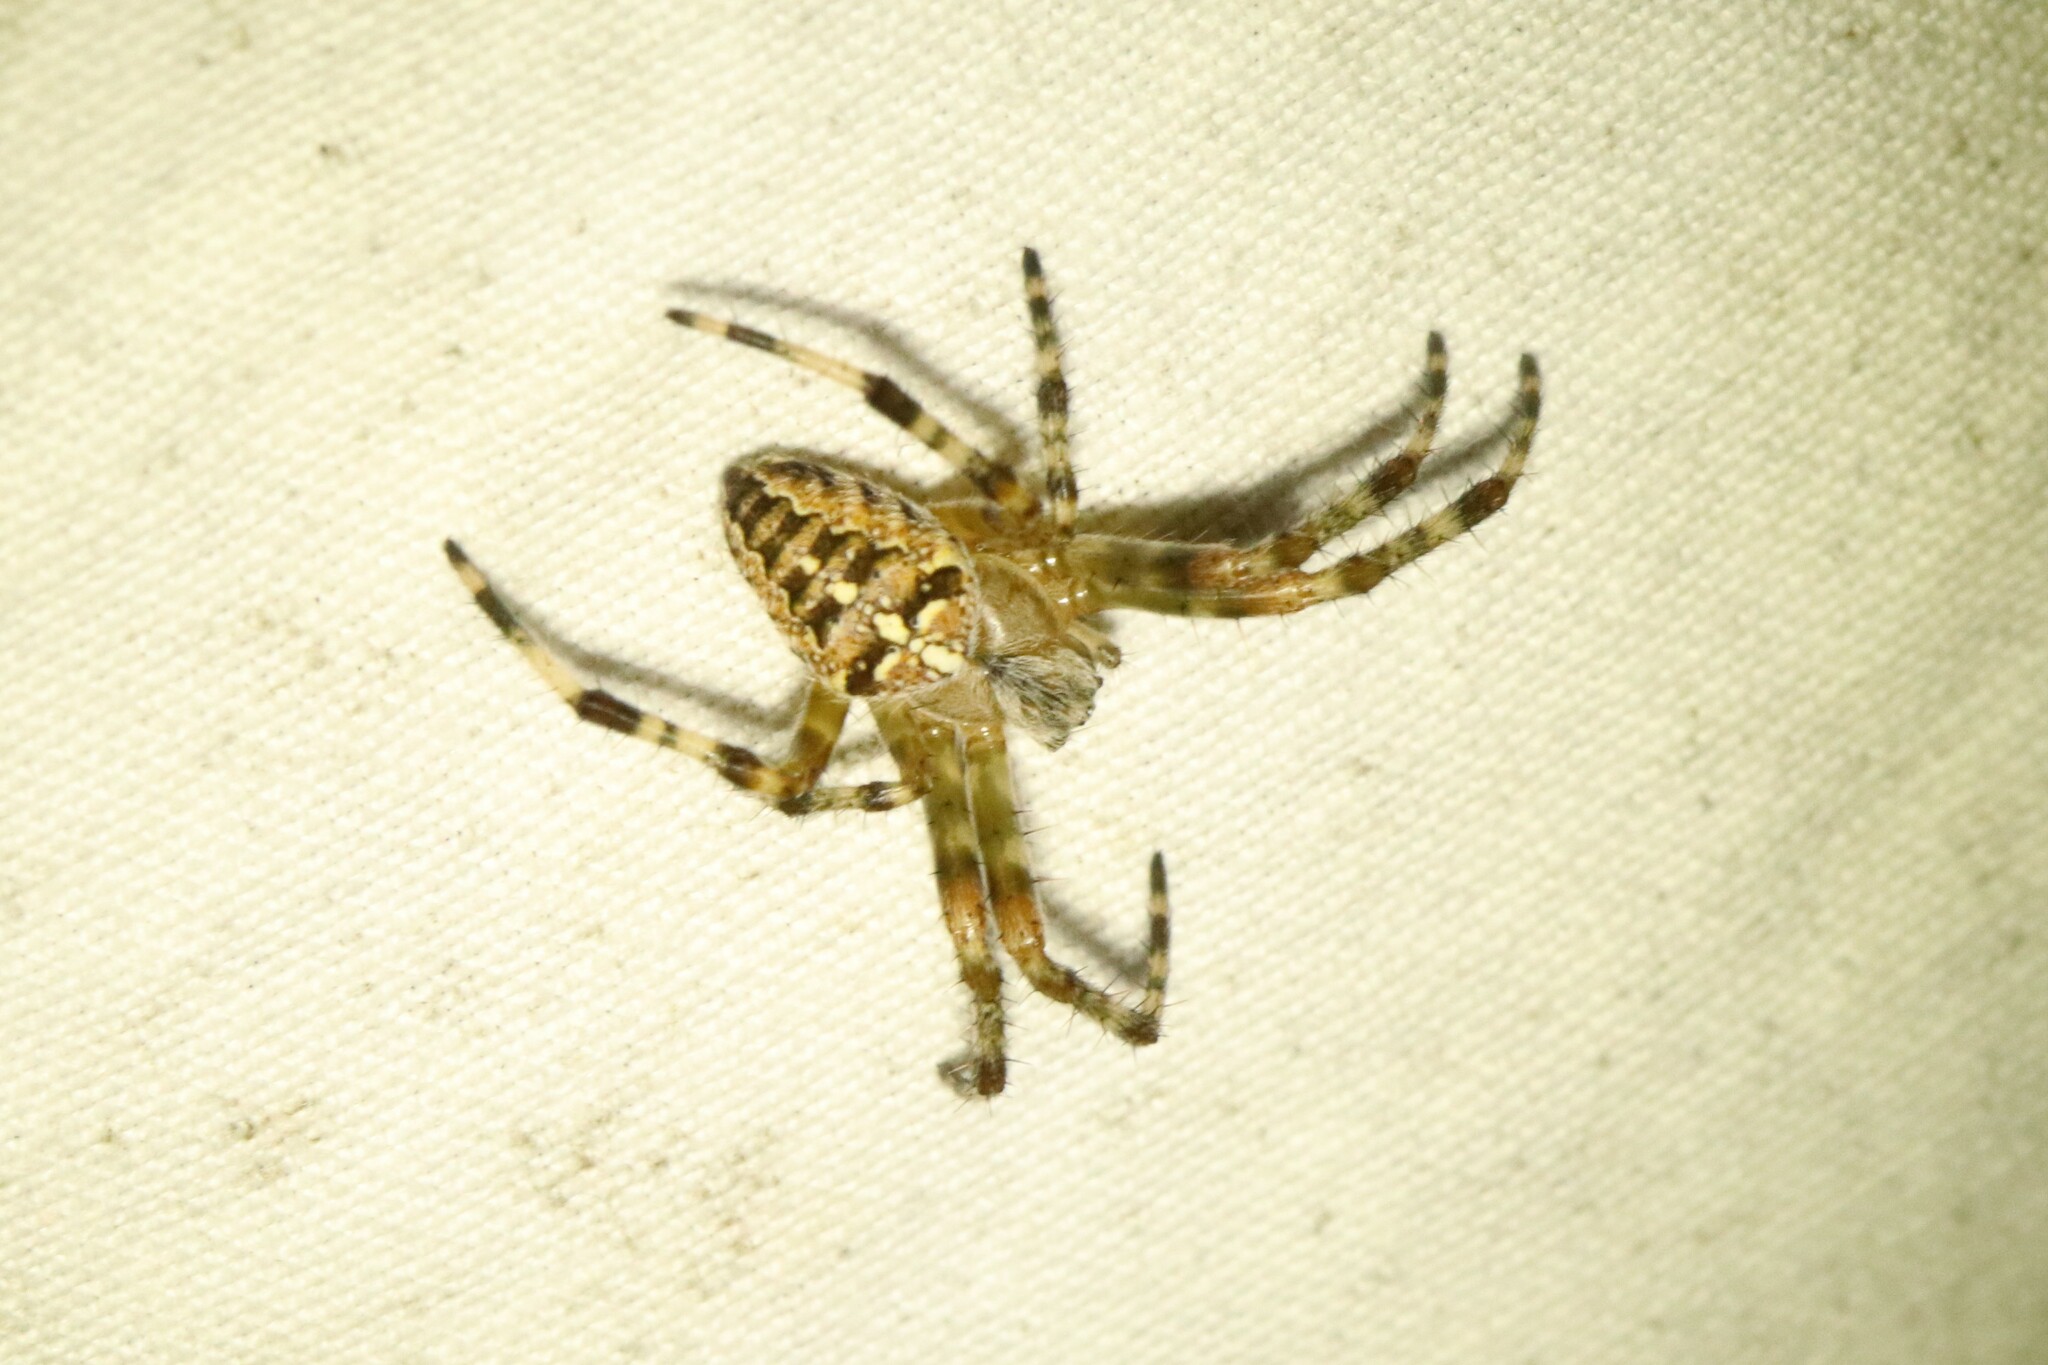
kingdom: Animalia
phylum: Arthropoda
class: Arachnida
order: Araneae
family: Araneidae
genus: Araneus
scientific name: Araneus diadematus
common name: Cross orbweaver
